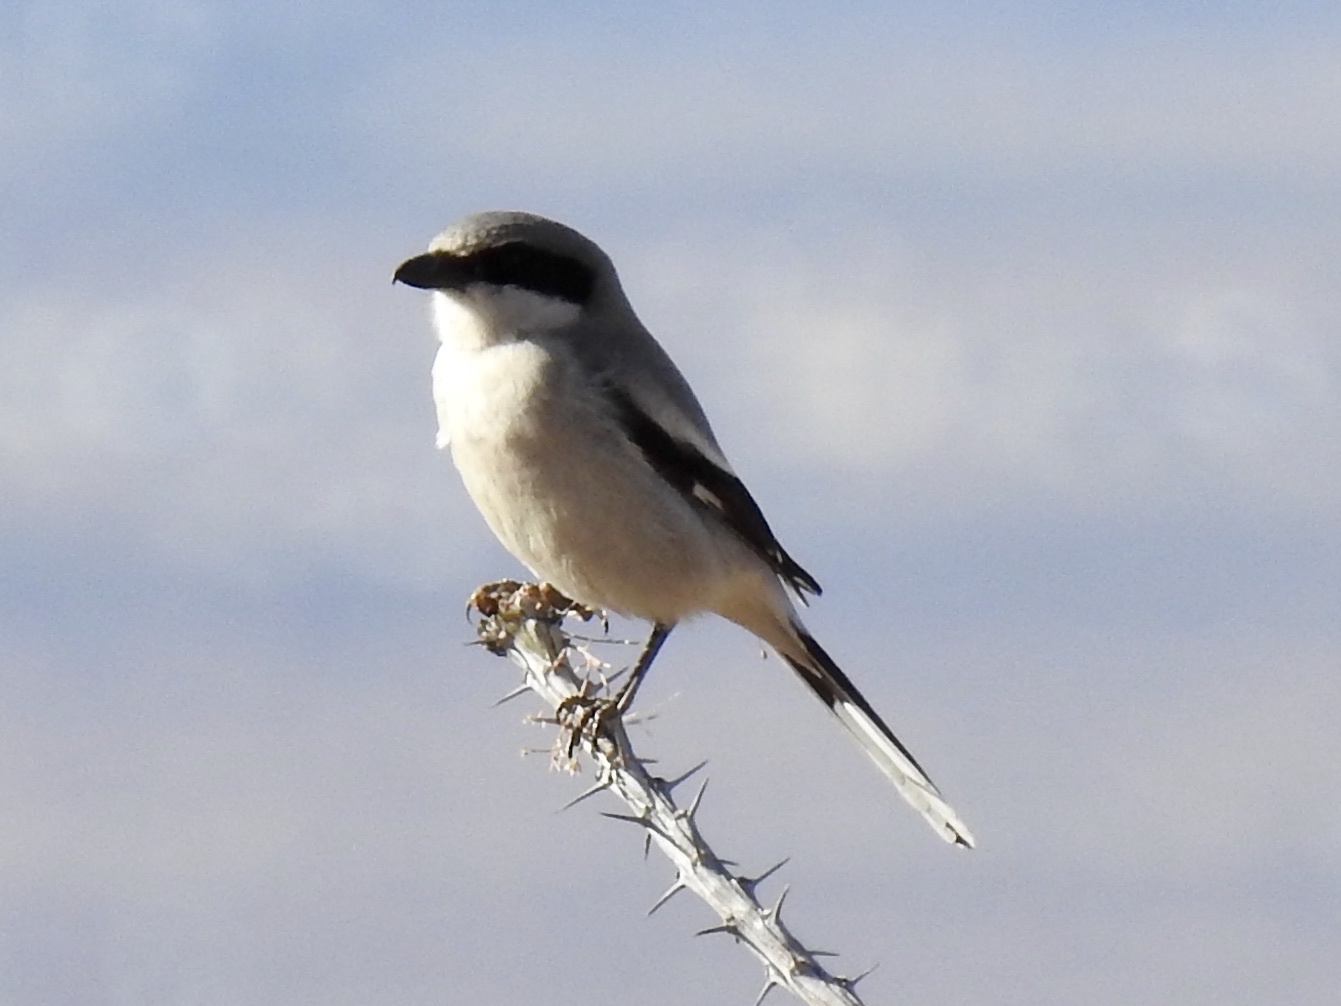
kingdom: Animalia
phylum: Chordata
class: Aves
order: Passeriformes
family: Laniidae
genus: Lanius
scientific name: Lanius ludovicianus
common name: Loggerhead shrike
